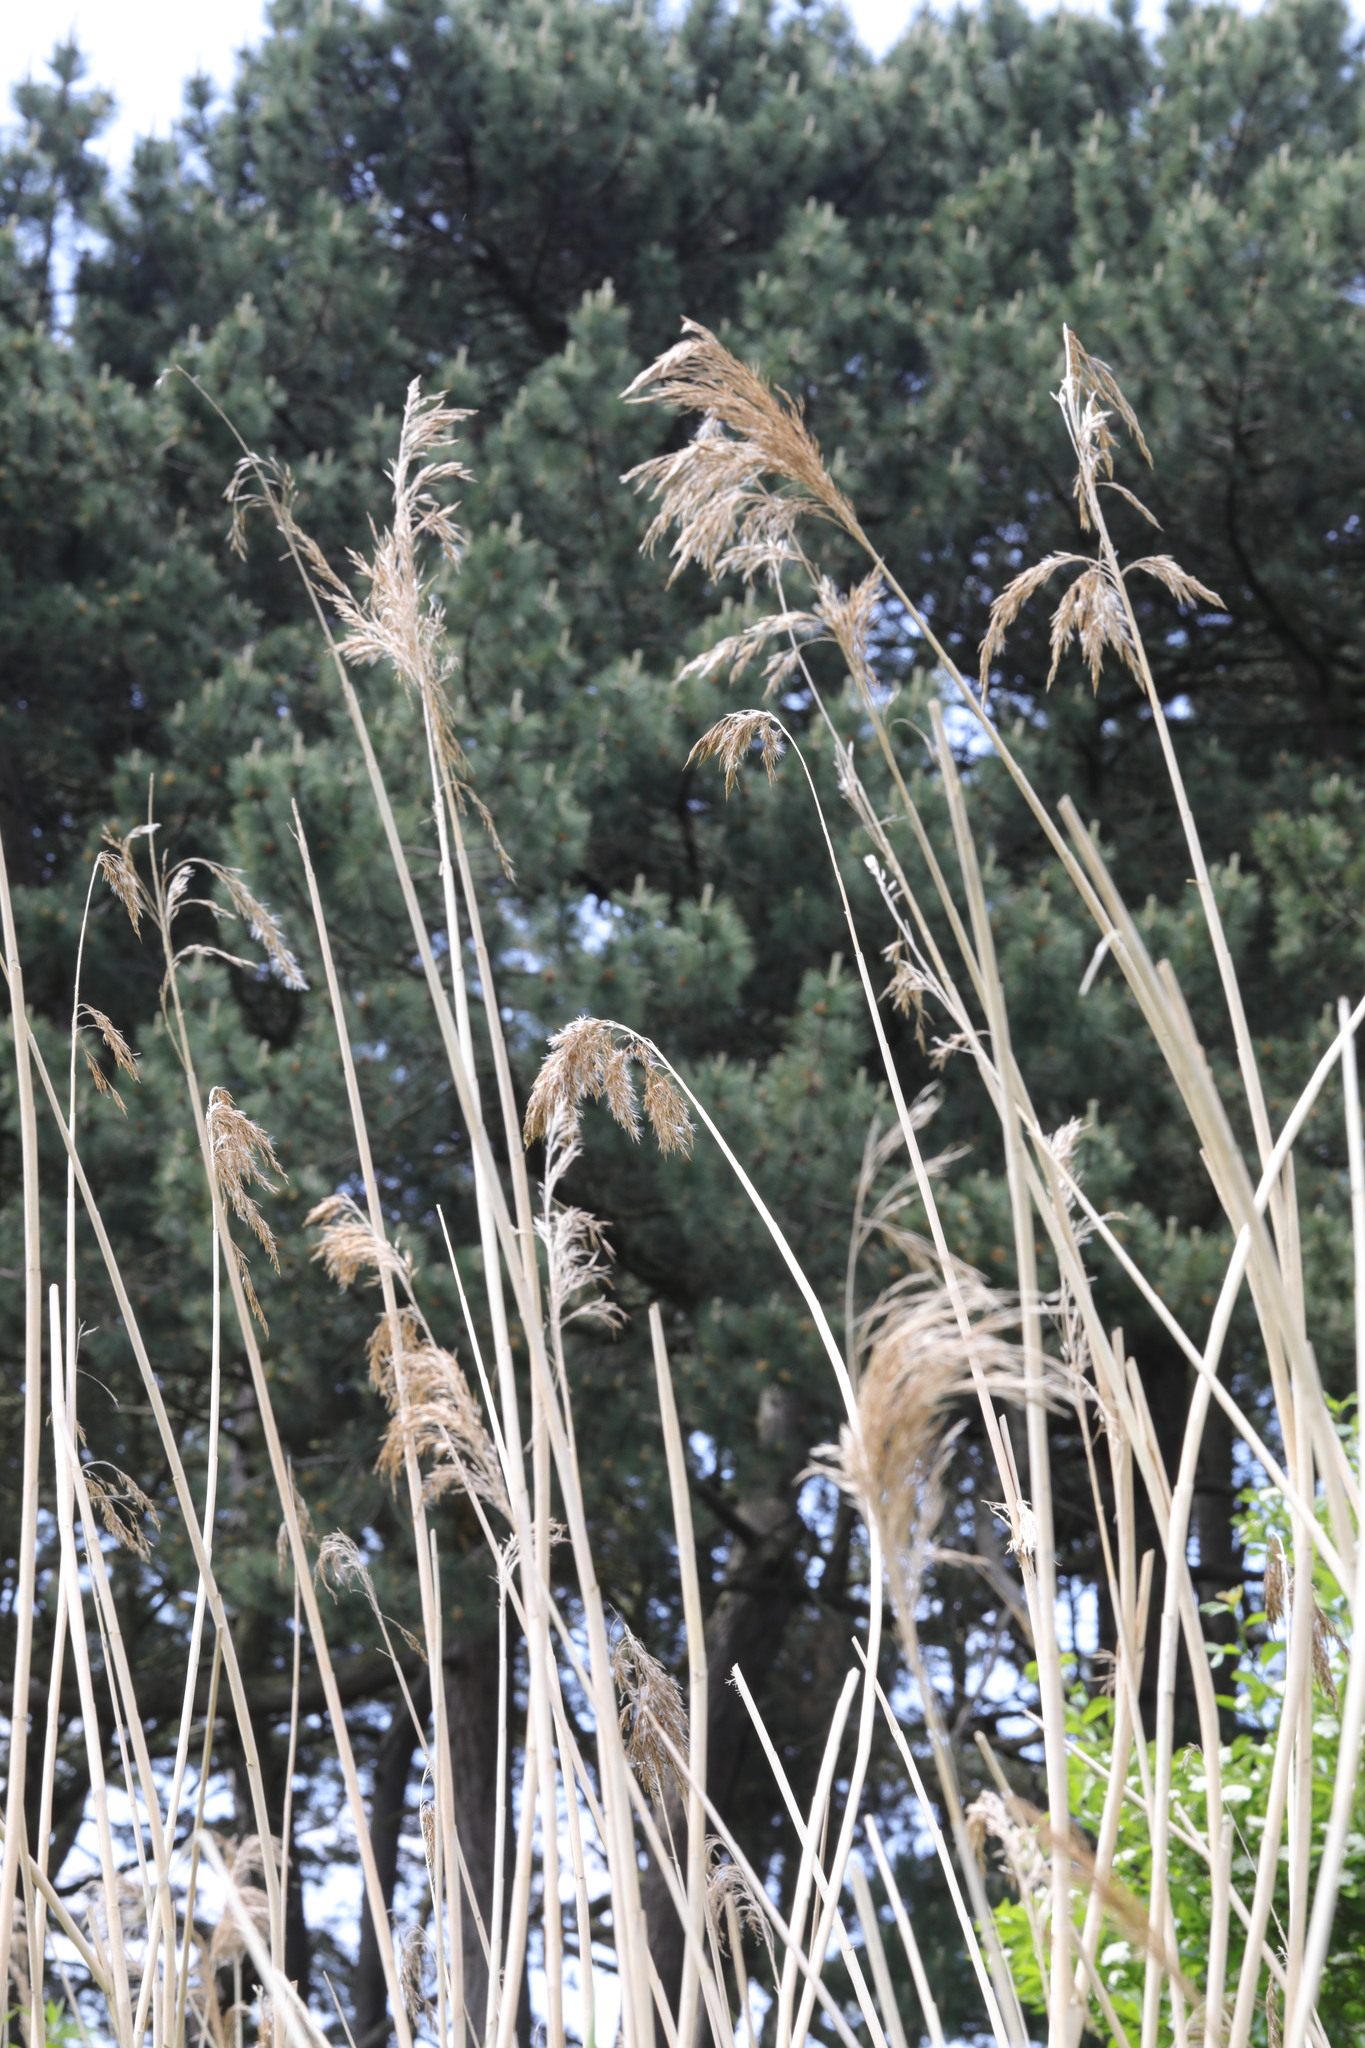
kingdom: Plantae
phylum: Tracheophyta
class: Liliopsida
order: Poales
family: Poaceae
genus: Phragmites
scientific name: Phragmites australis
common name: Common reed
